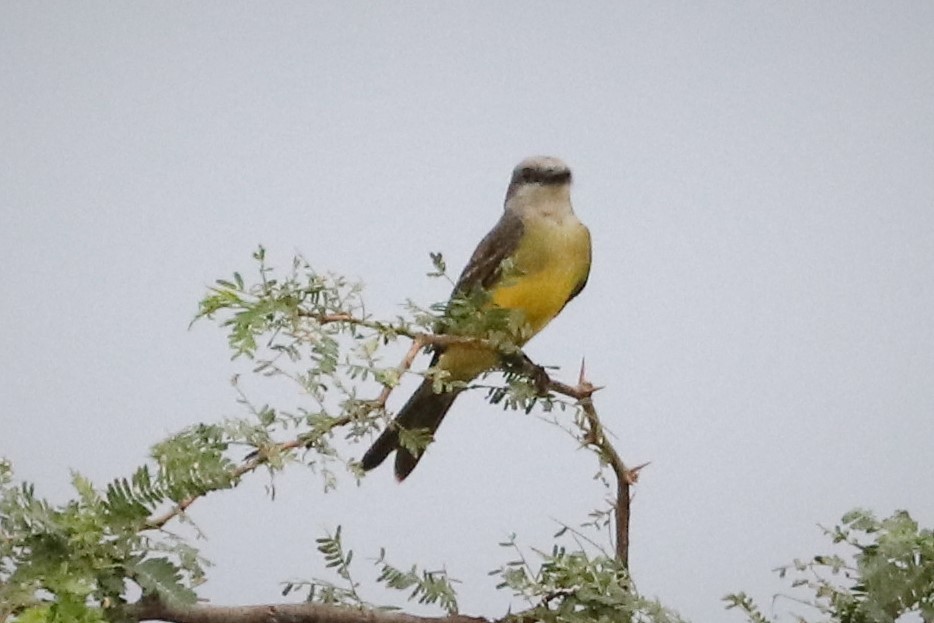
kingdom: Animalia
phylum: Chordata
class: Aves
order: Passeriformes
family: Tyrannidae
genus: Tyrannus
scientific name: Tyrannus melancholicus
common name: Tropical kingbird
